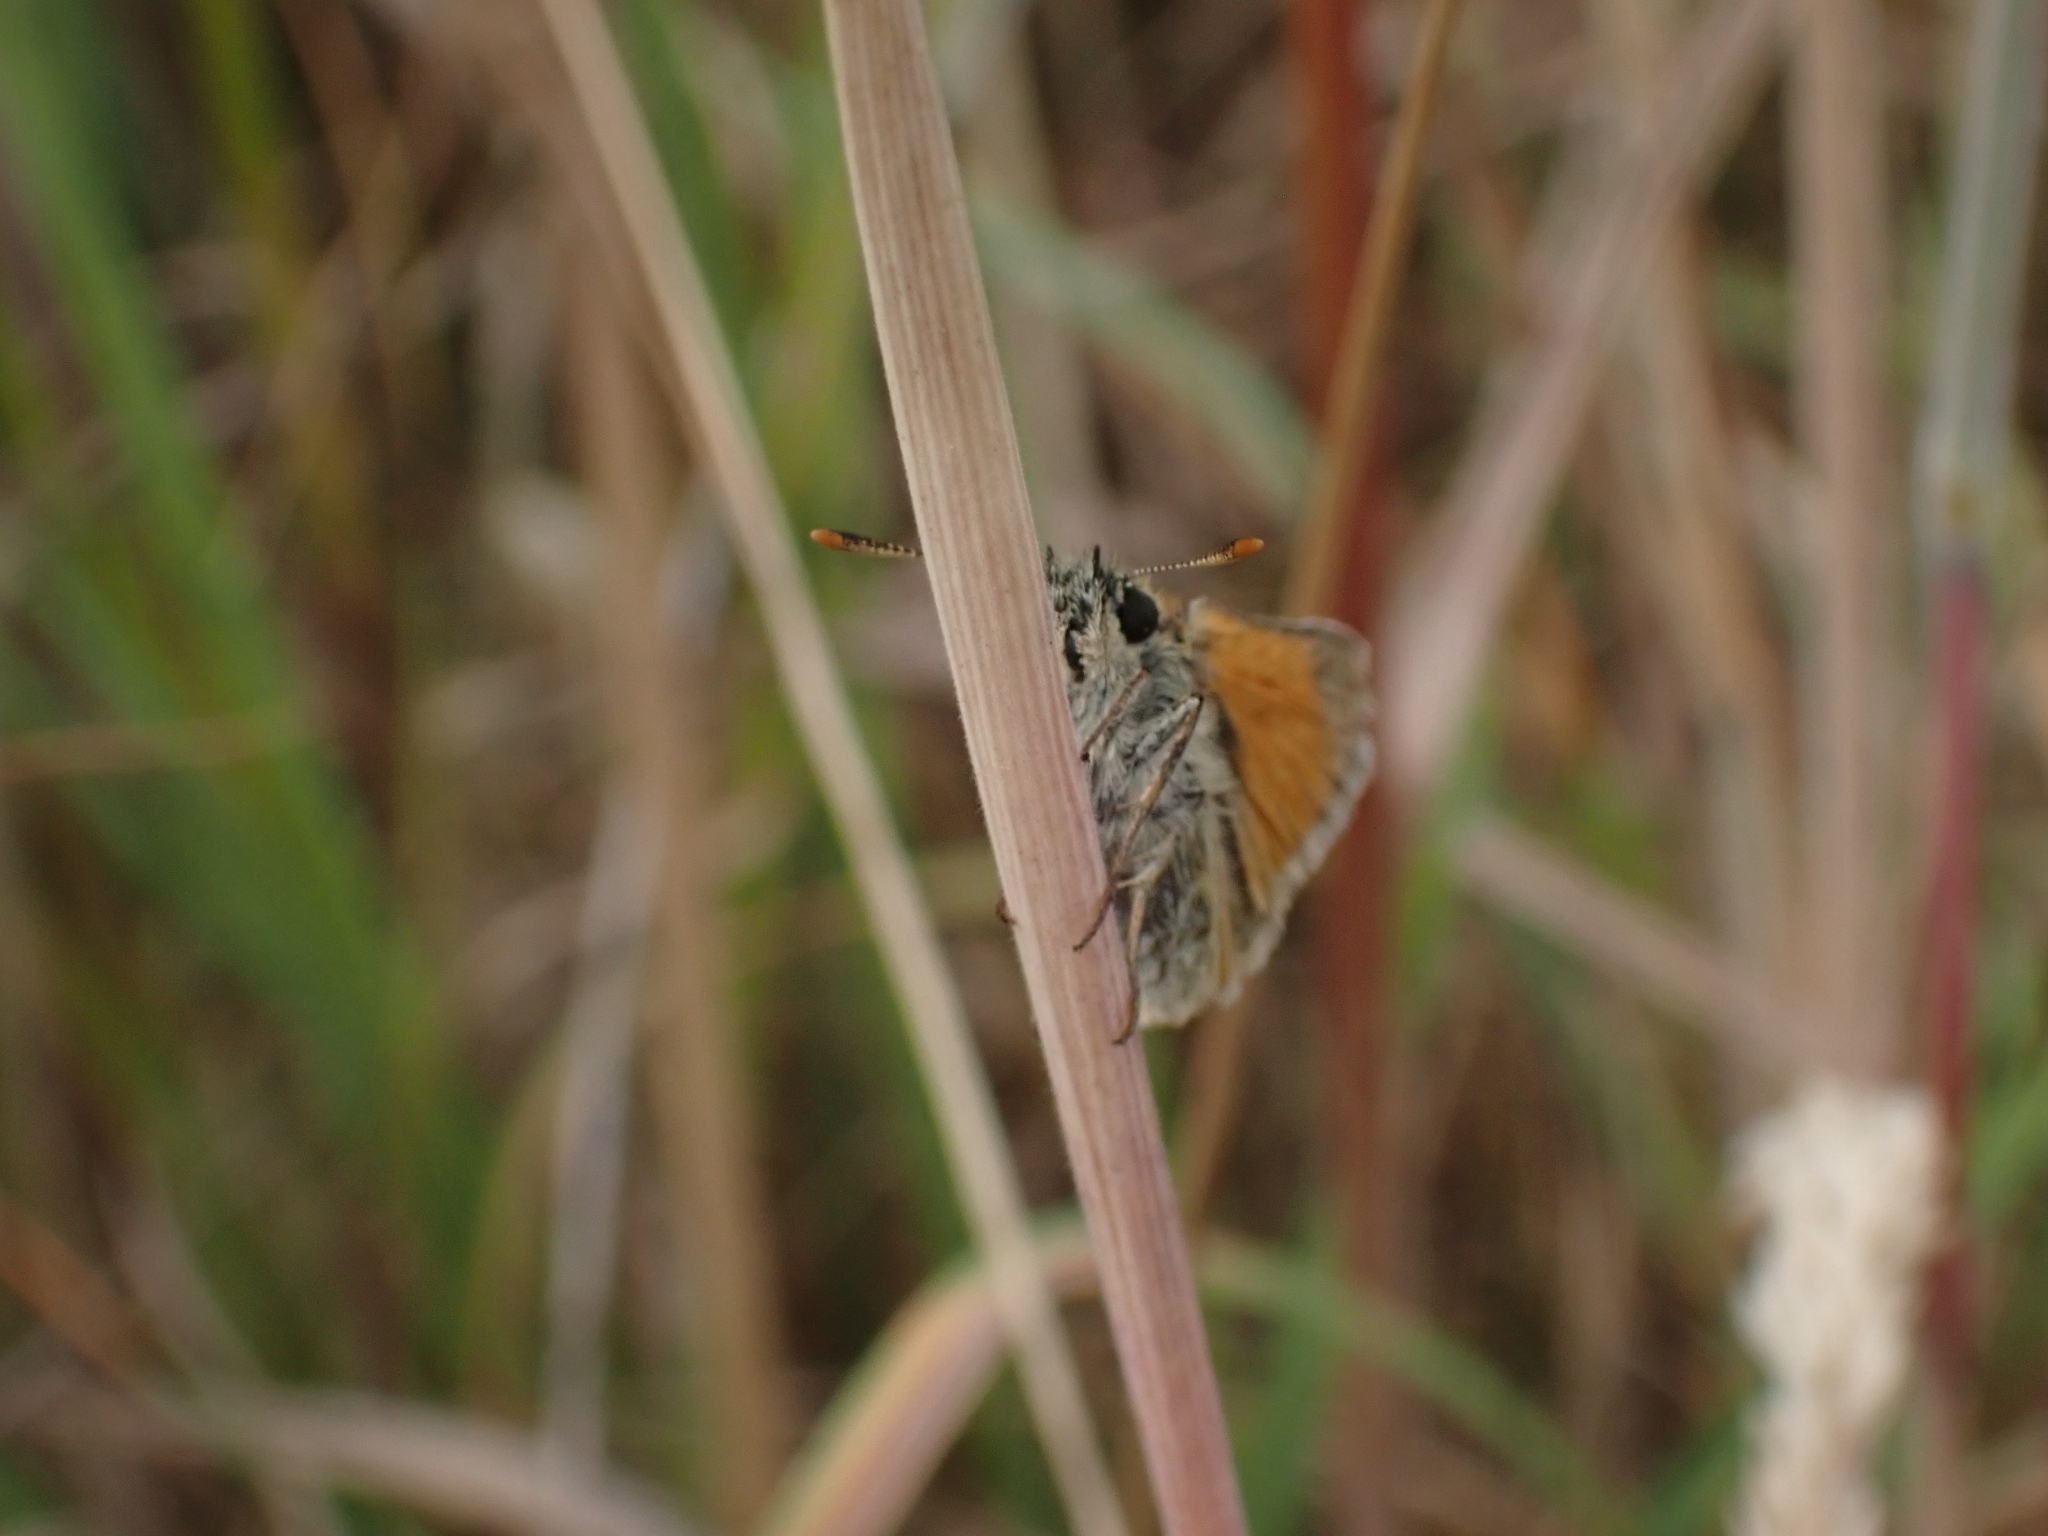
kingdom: Animalia
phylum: Arthropoda
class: Insecta
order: Lepidoptera
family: Hesperiidae
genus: Thymelicus
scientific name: Thymelicus sylvestris
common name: Small skipper
